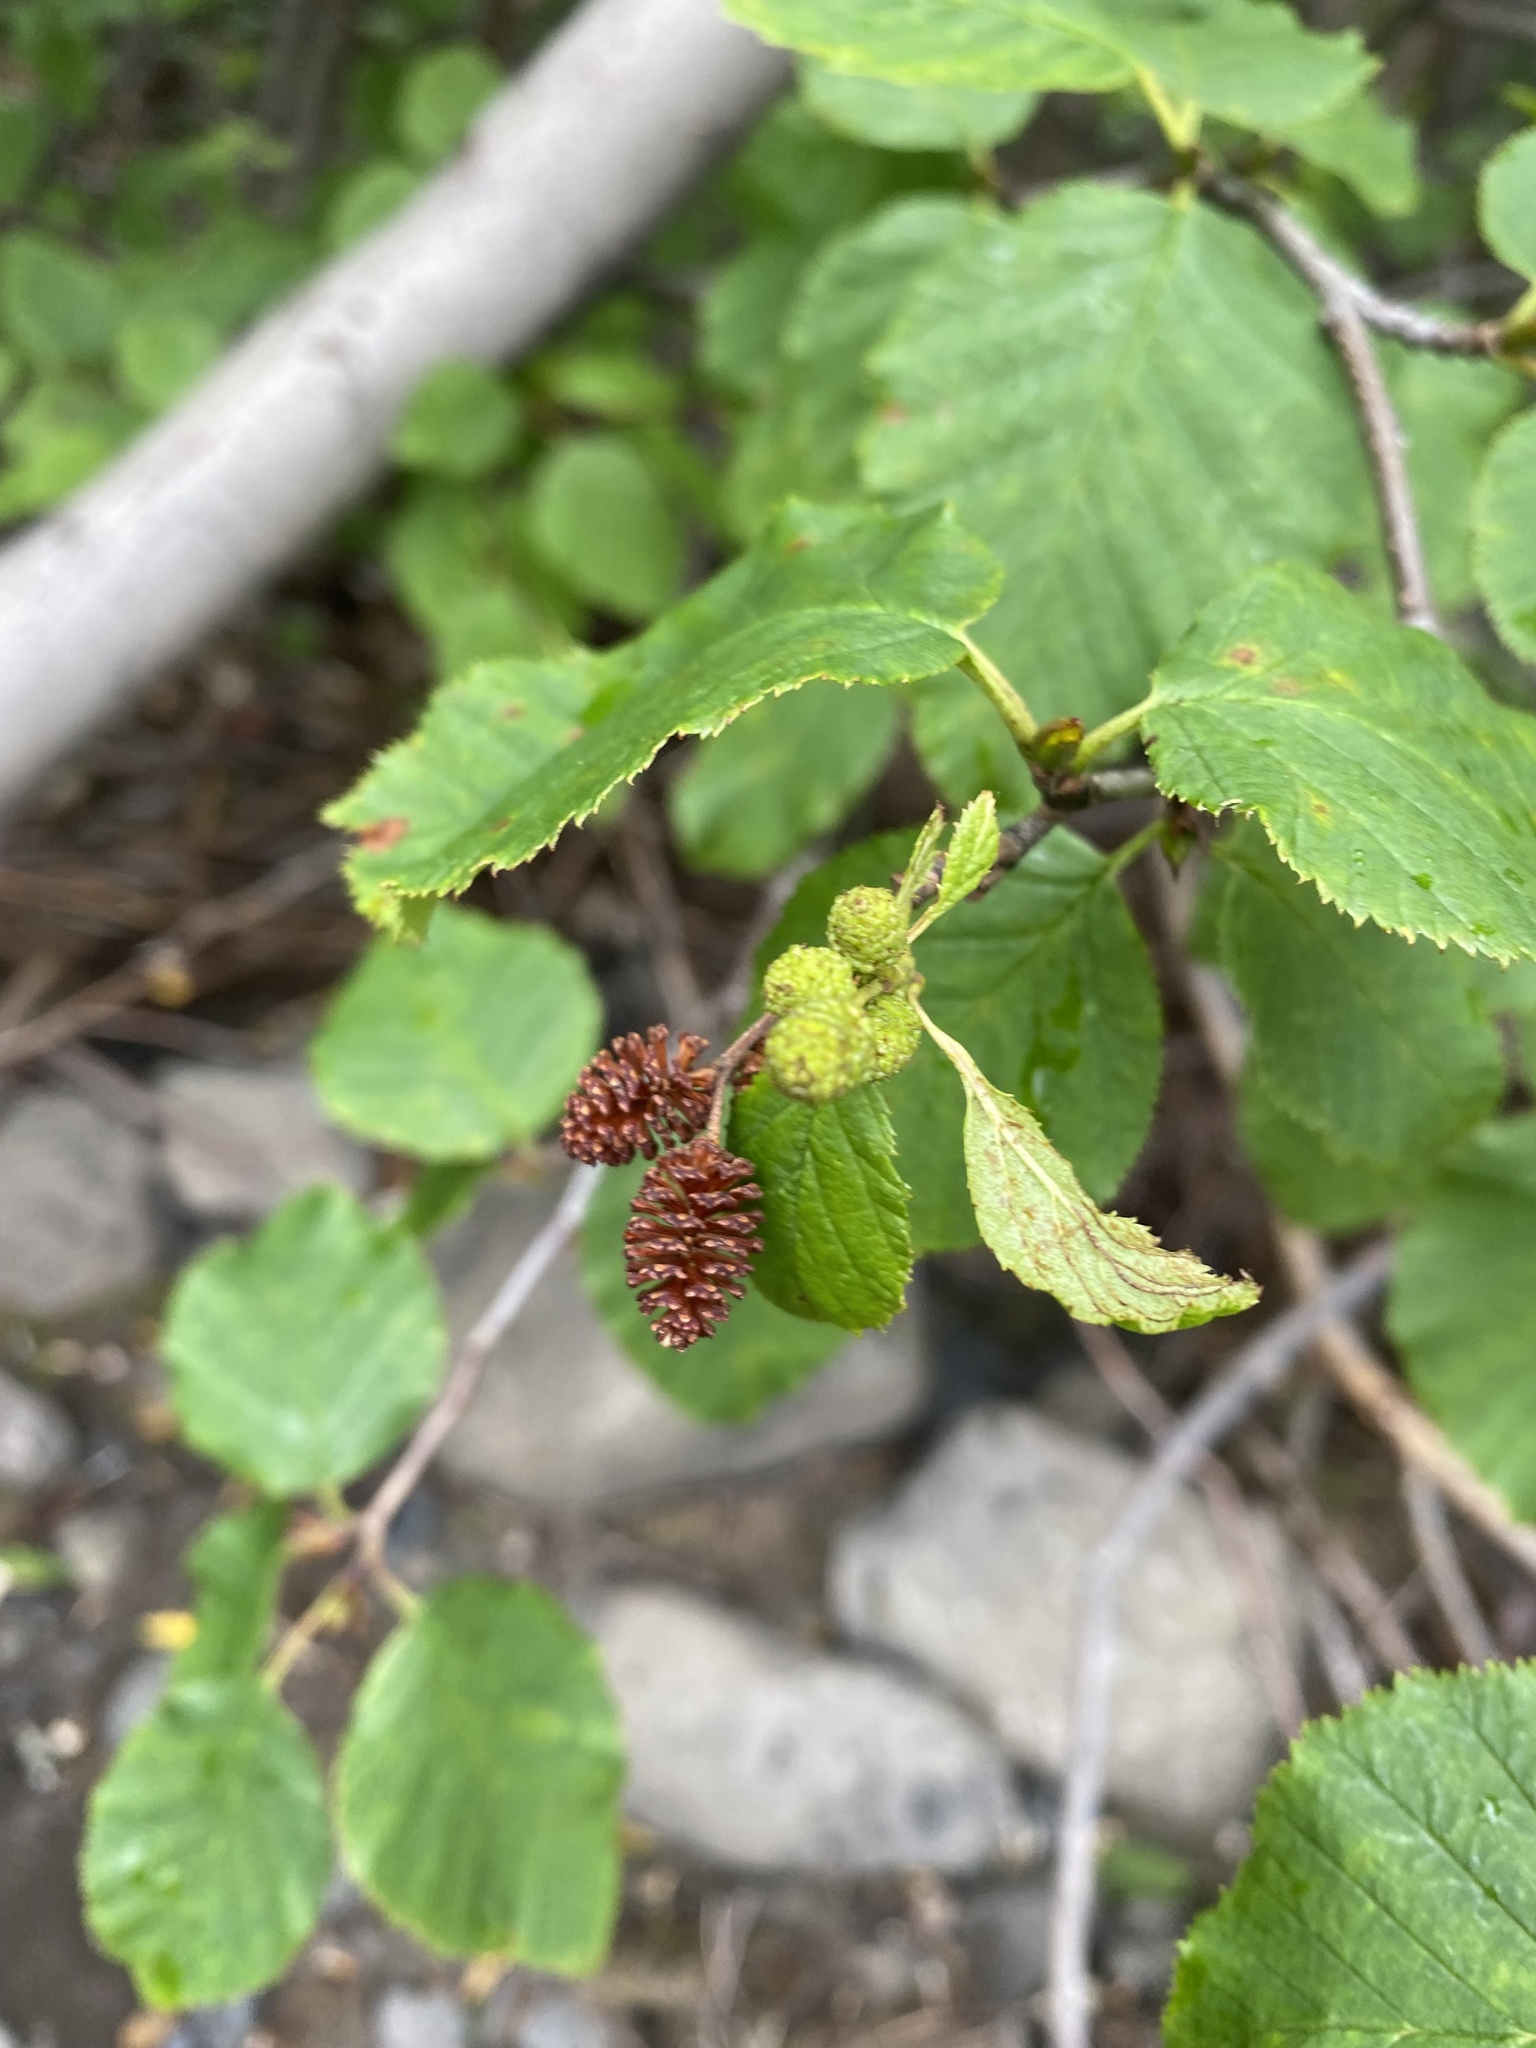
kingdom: Plantae
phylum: Tracheophyta
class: Magnoliopsida
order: Fagales
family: Betulaceae
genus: Alnus
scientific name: Alnus alnobetula
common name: Green alder
